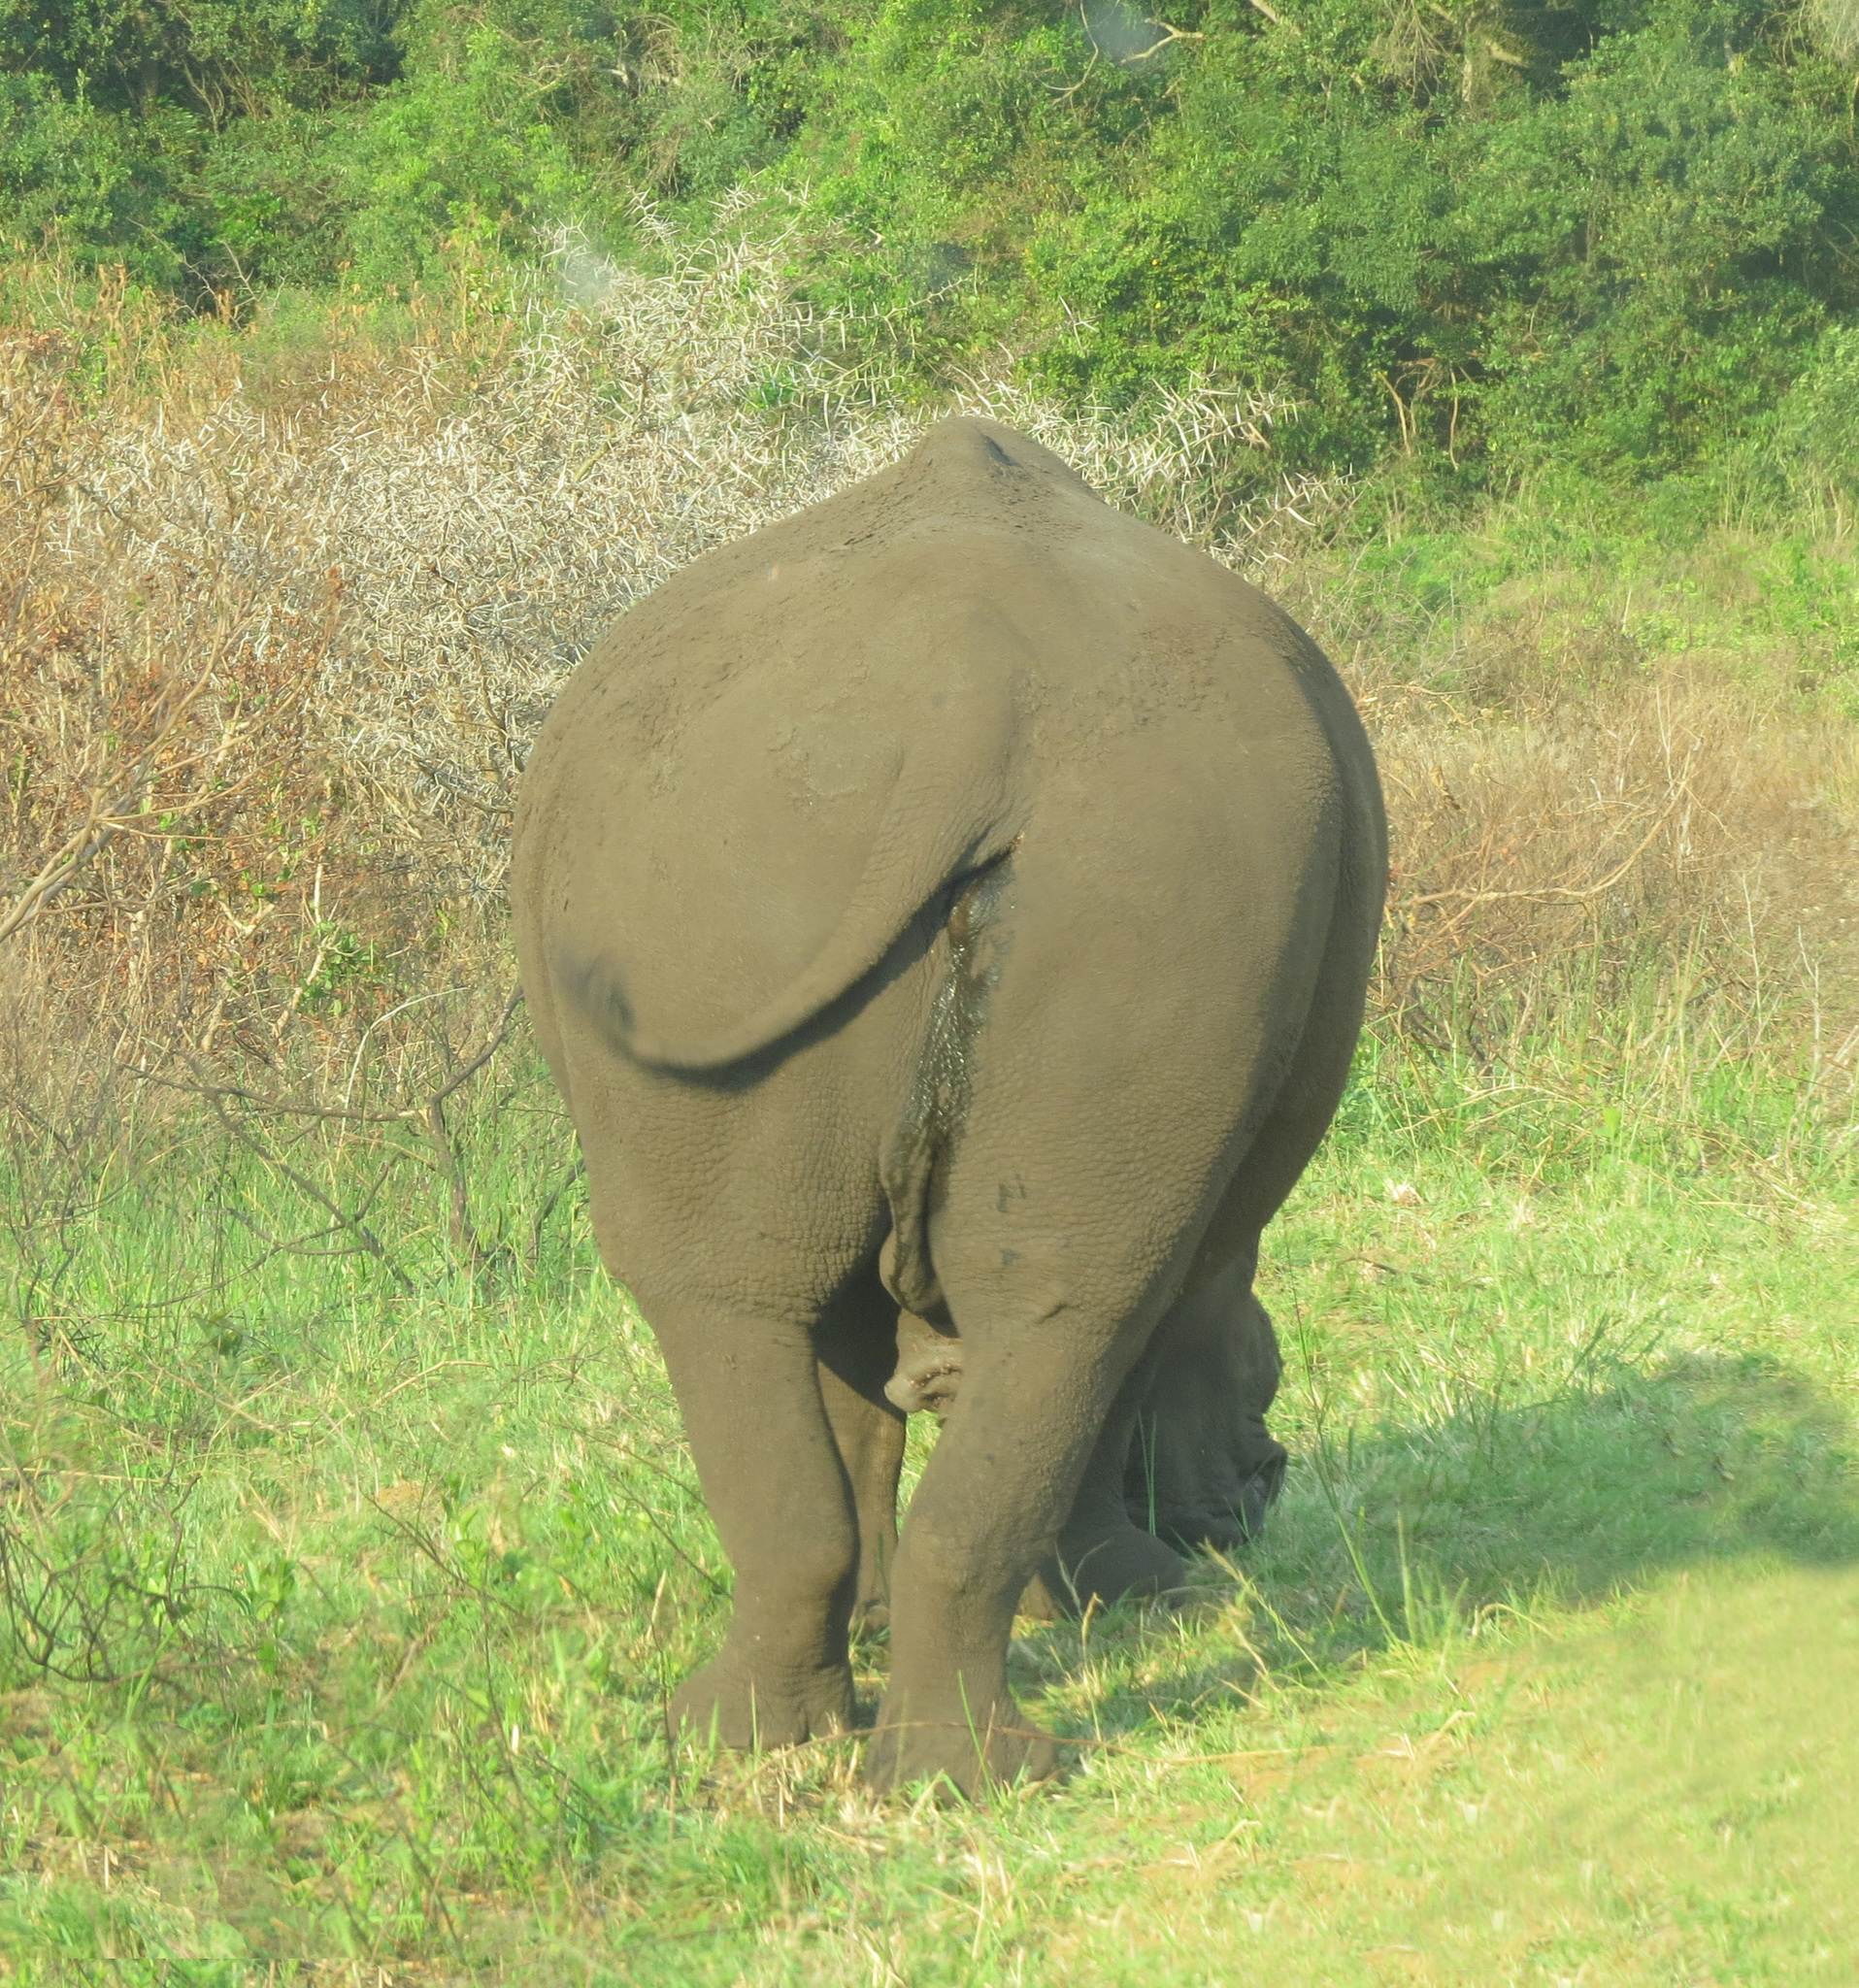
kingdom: Animalia
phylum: Chordata
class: Mammalia
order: Perissodactyla
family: Rhinocerotidae
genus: Ceratotherium
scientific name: Ceratotherium simum
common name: White rhinoceros
